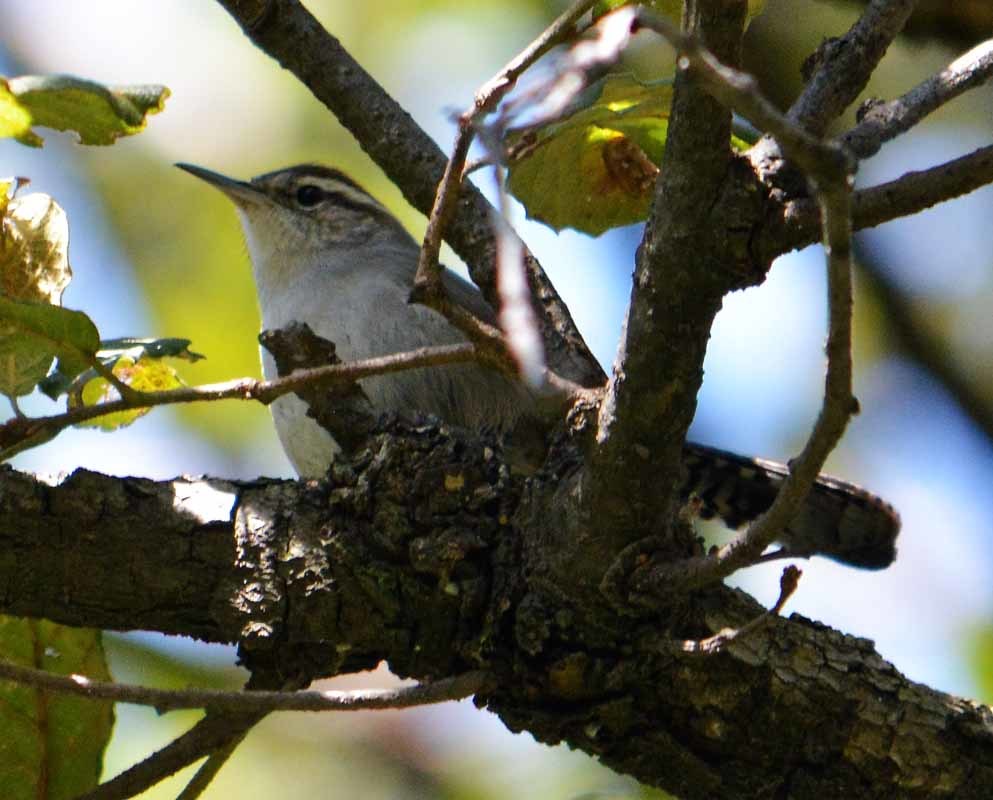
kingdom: Animalia
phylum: Chordata
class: Aves
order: Passeriformes
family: Troglodytidae
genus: Thryomanes
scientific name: Thryomanes bewickii
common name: Bewick's wren
